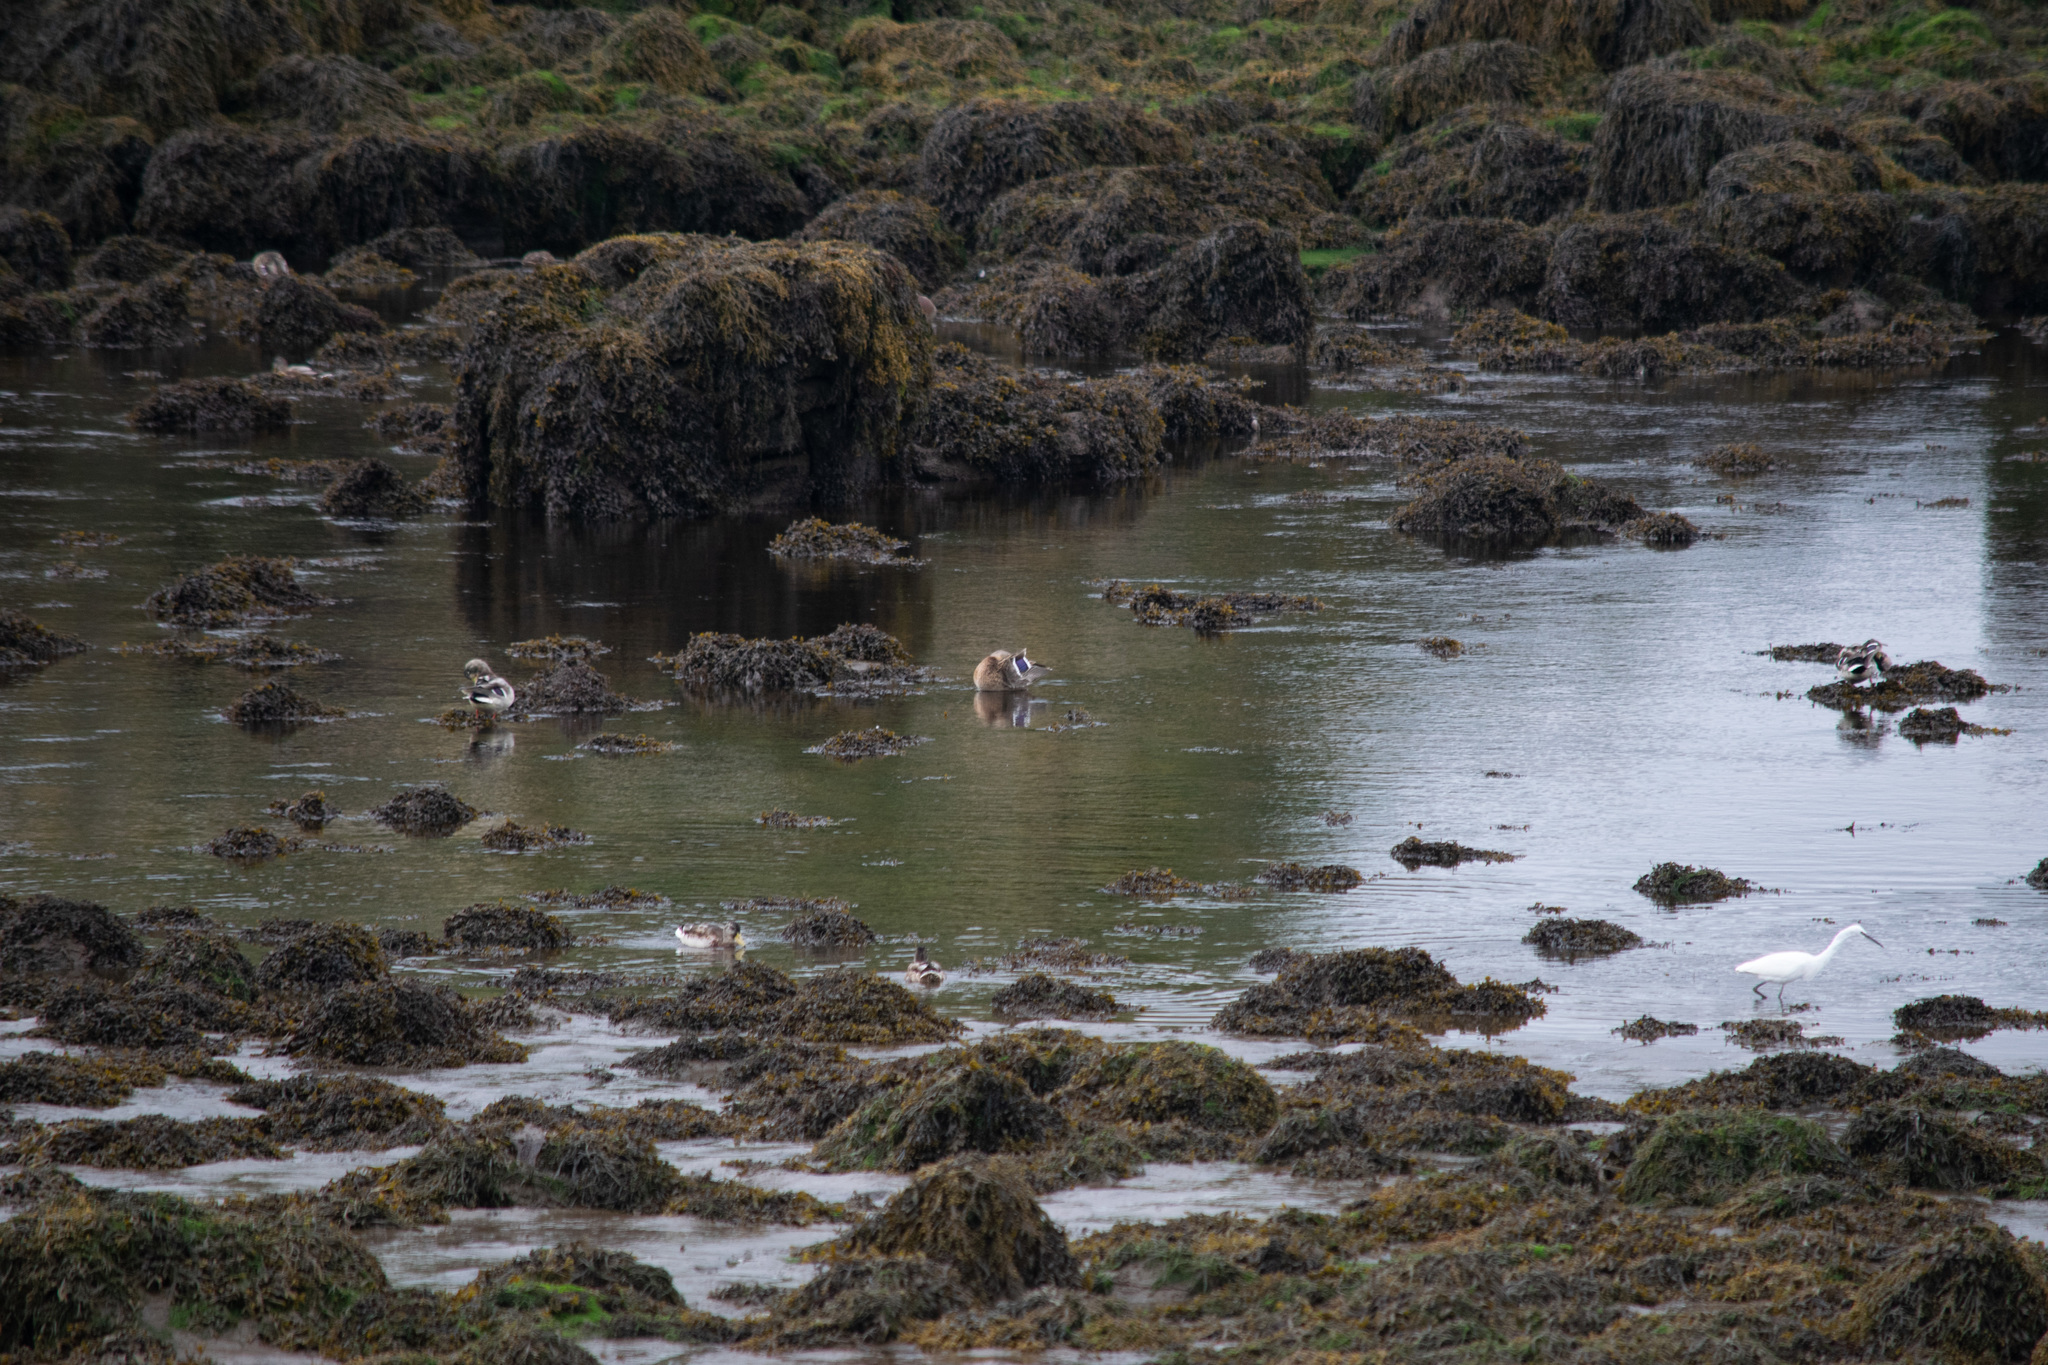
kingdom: Animalia
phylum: Chordata
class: Aves
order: Anseriformes
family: Anatidae
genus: Anas
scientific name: Anas platyrhynchos
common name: Mallard
